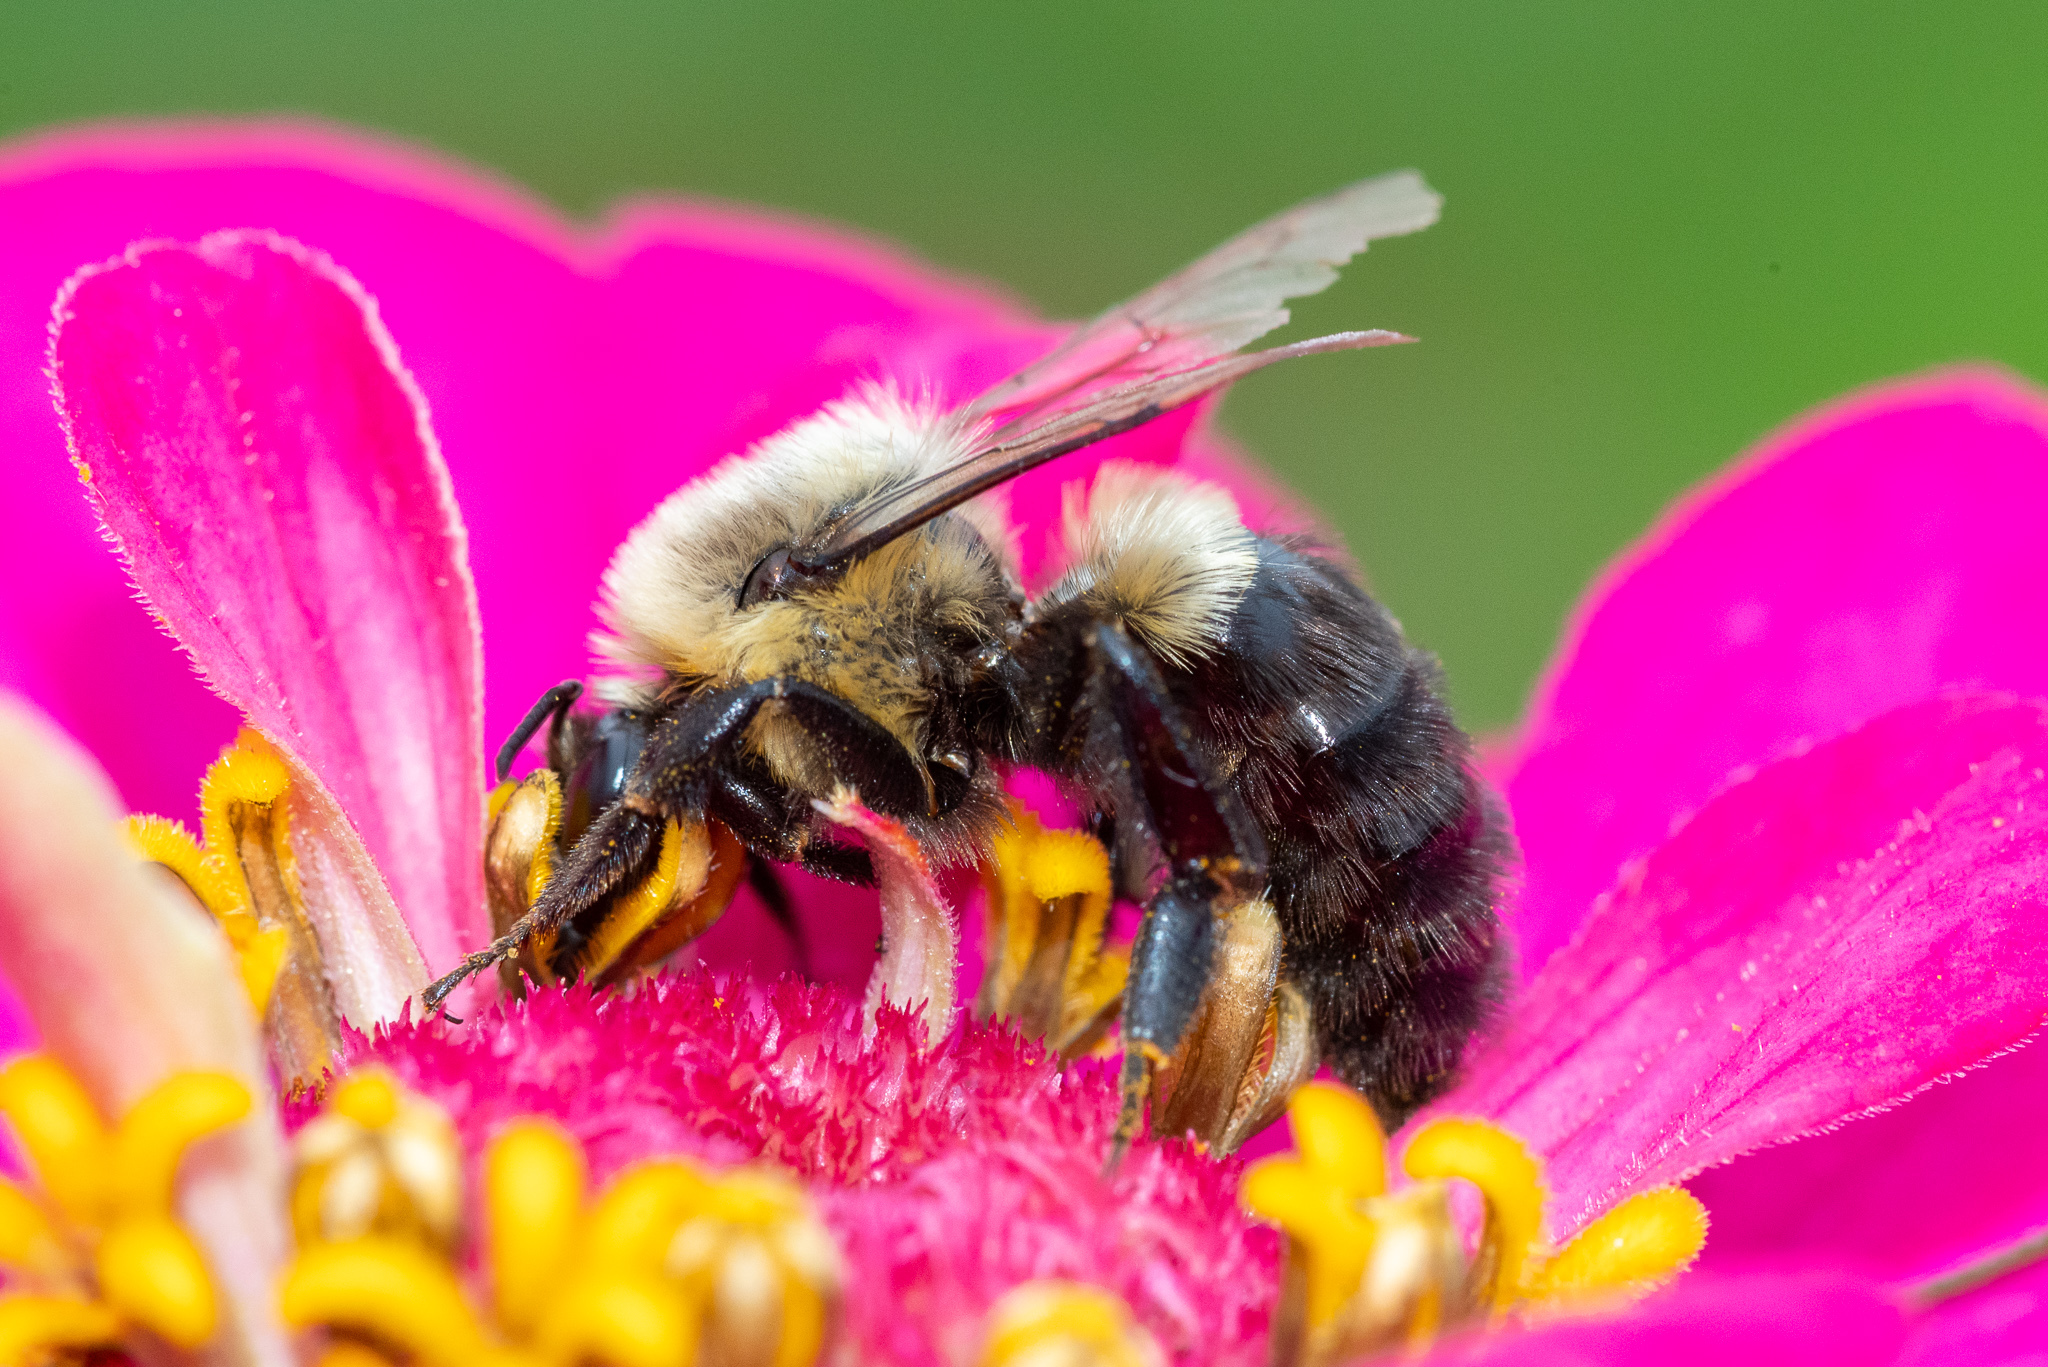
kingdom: Animalia
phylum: Arthropoda
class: Insecta
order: Hymenoptera
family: Apidae
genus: Bombus
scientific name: Bombus impatiens
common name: Common eastern bumble bee
